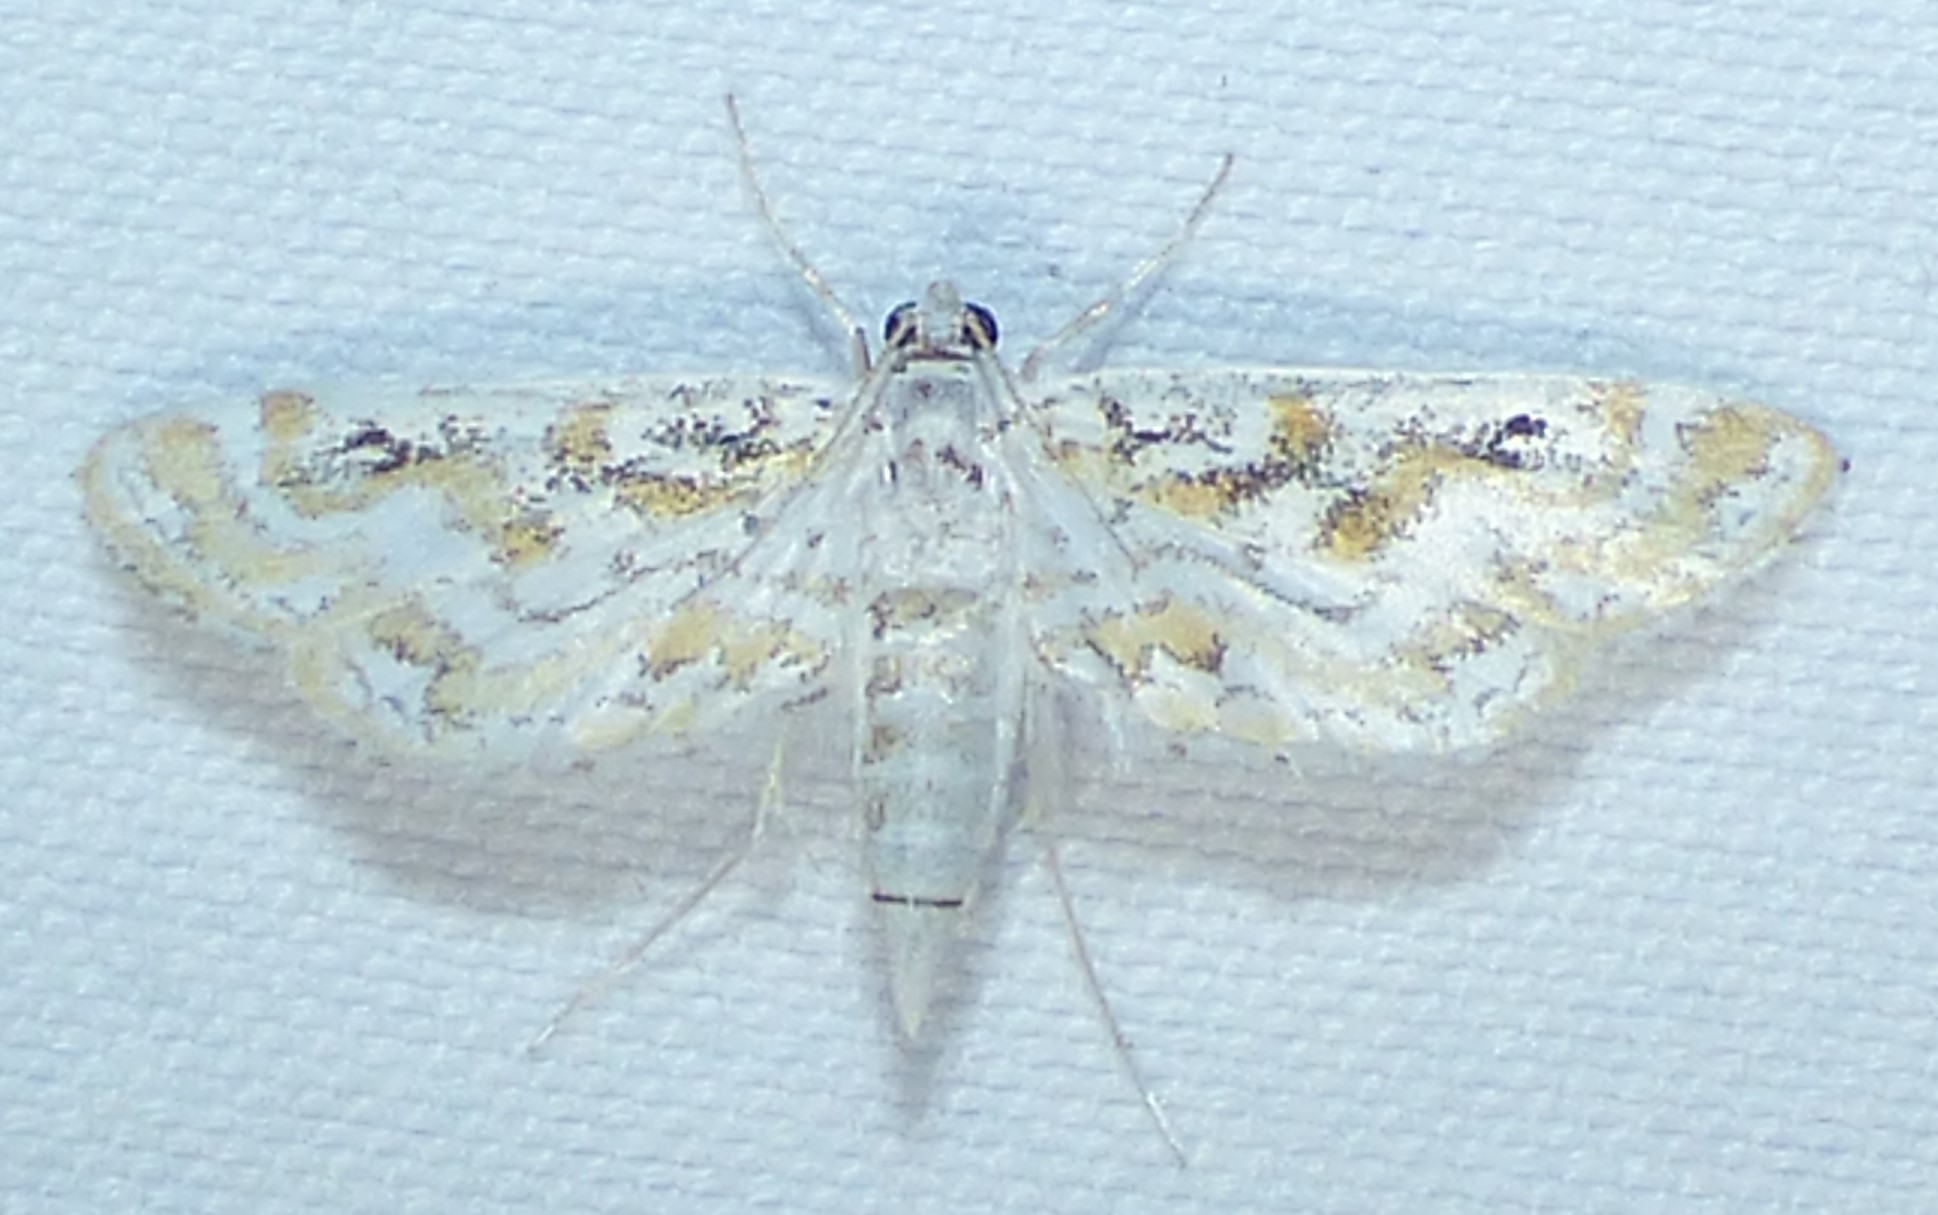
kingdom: Animalia
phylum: Arthropoda
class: Insecta
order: Lepidoptera
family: Crambidae
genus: Parapoynx
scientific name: Parapoynx diminutalis
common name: Hydrilla leafcutter
